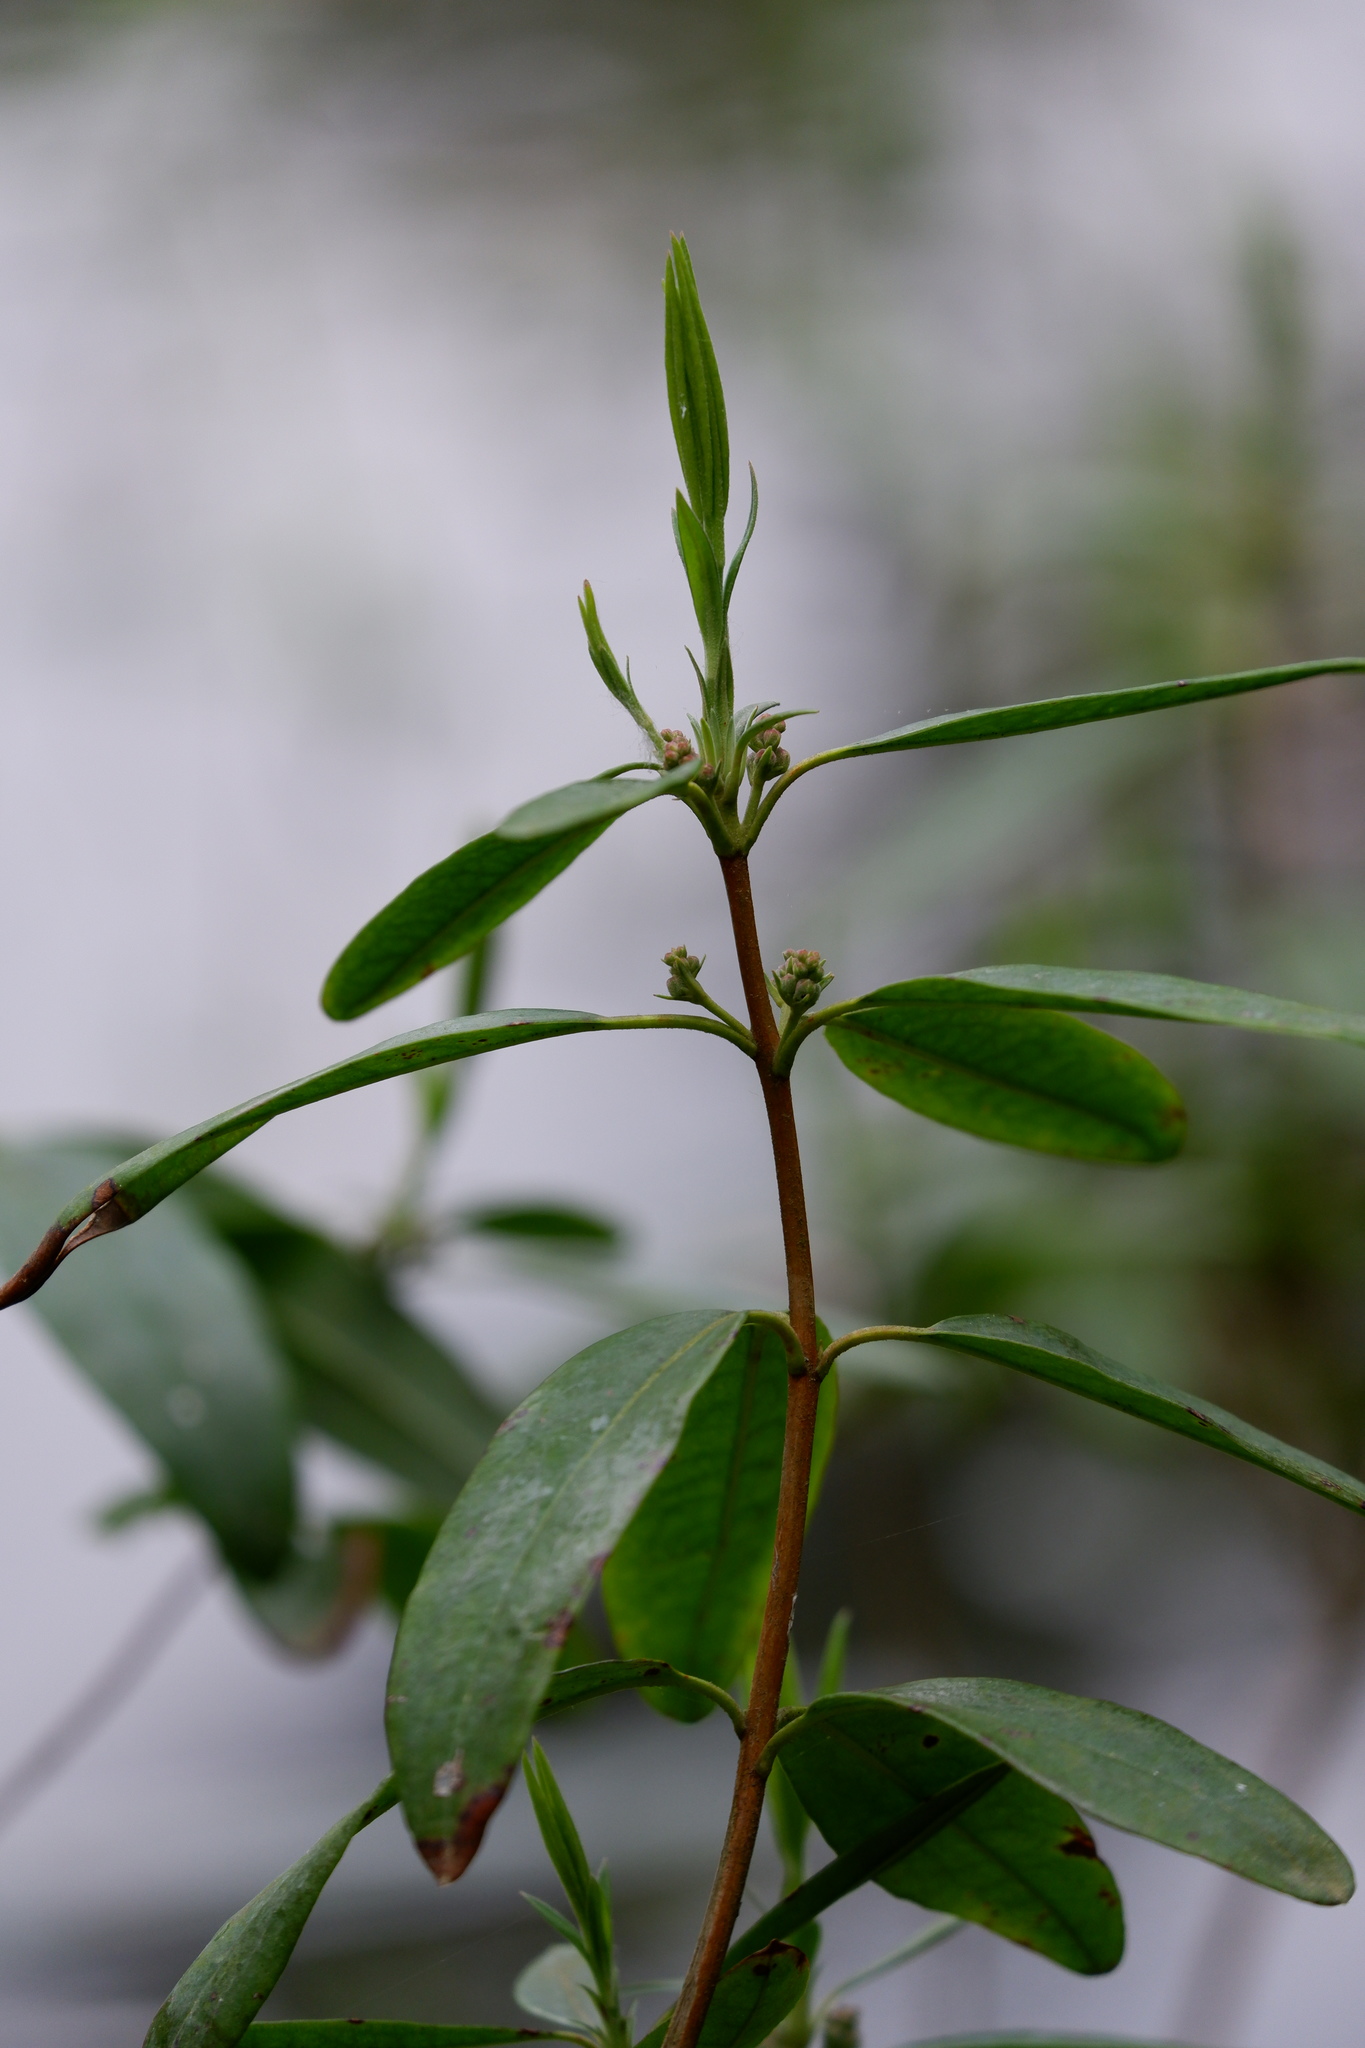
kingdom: Plantae
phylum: Tracheophyta
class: Magnoliopsida
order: Ericales
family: Ericaceae
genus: Kalmia
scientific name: Kalmia angustifolia
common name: Sheep-laurel
